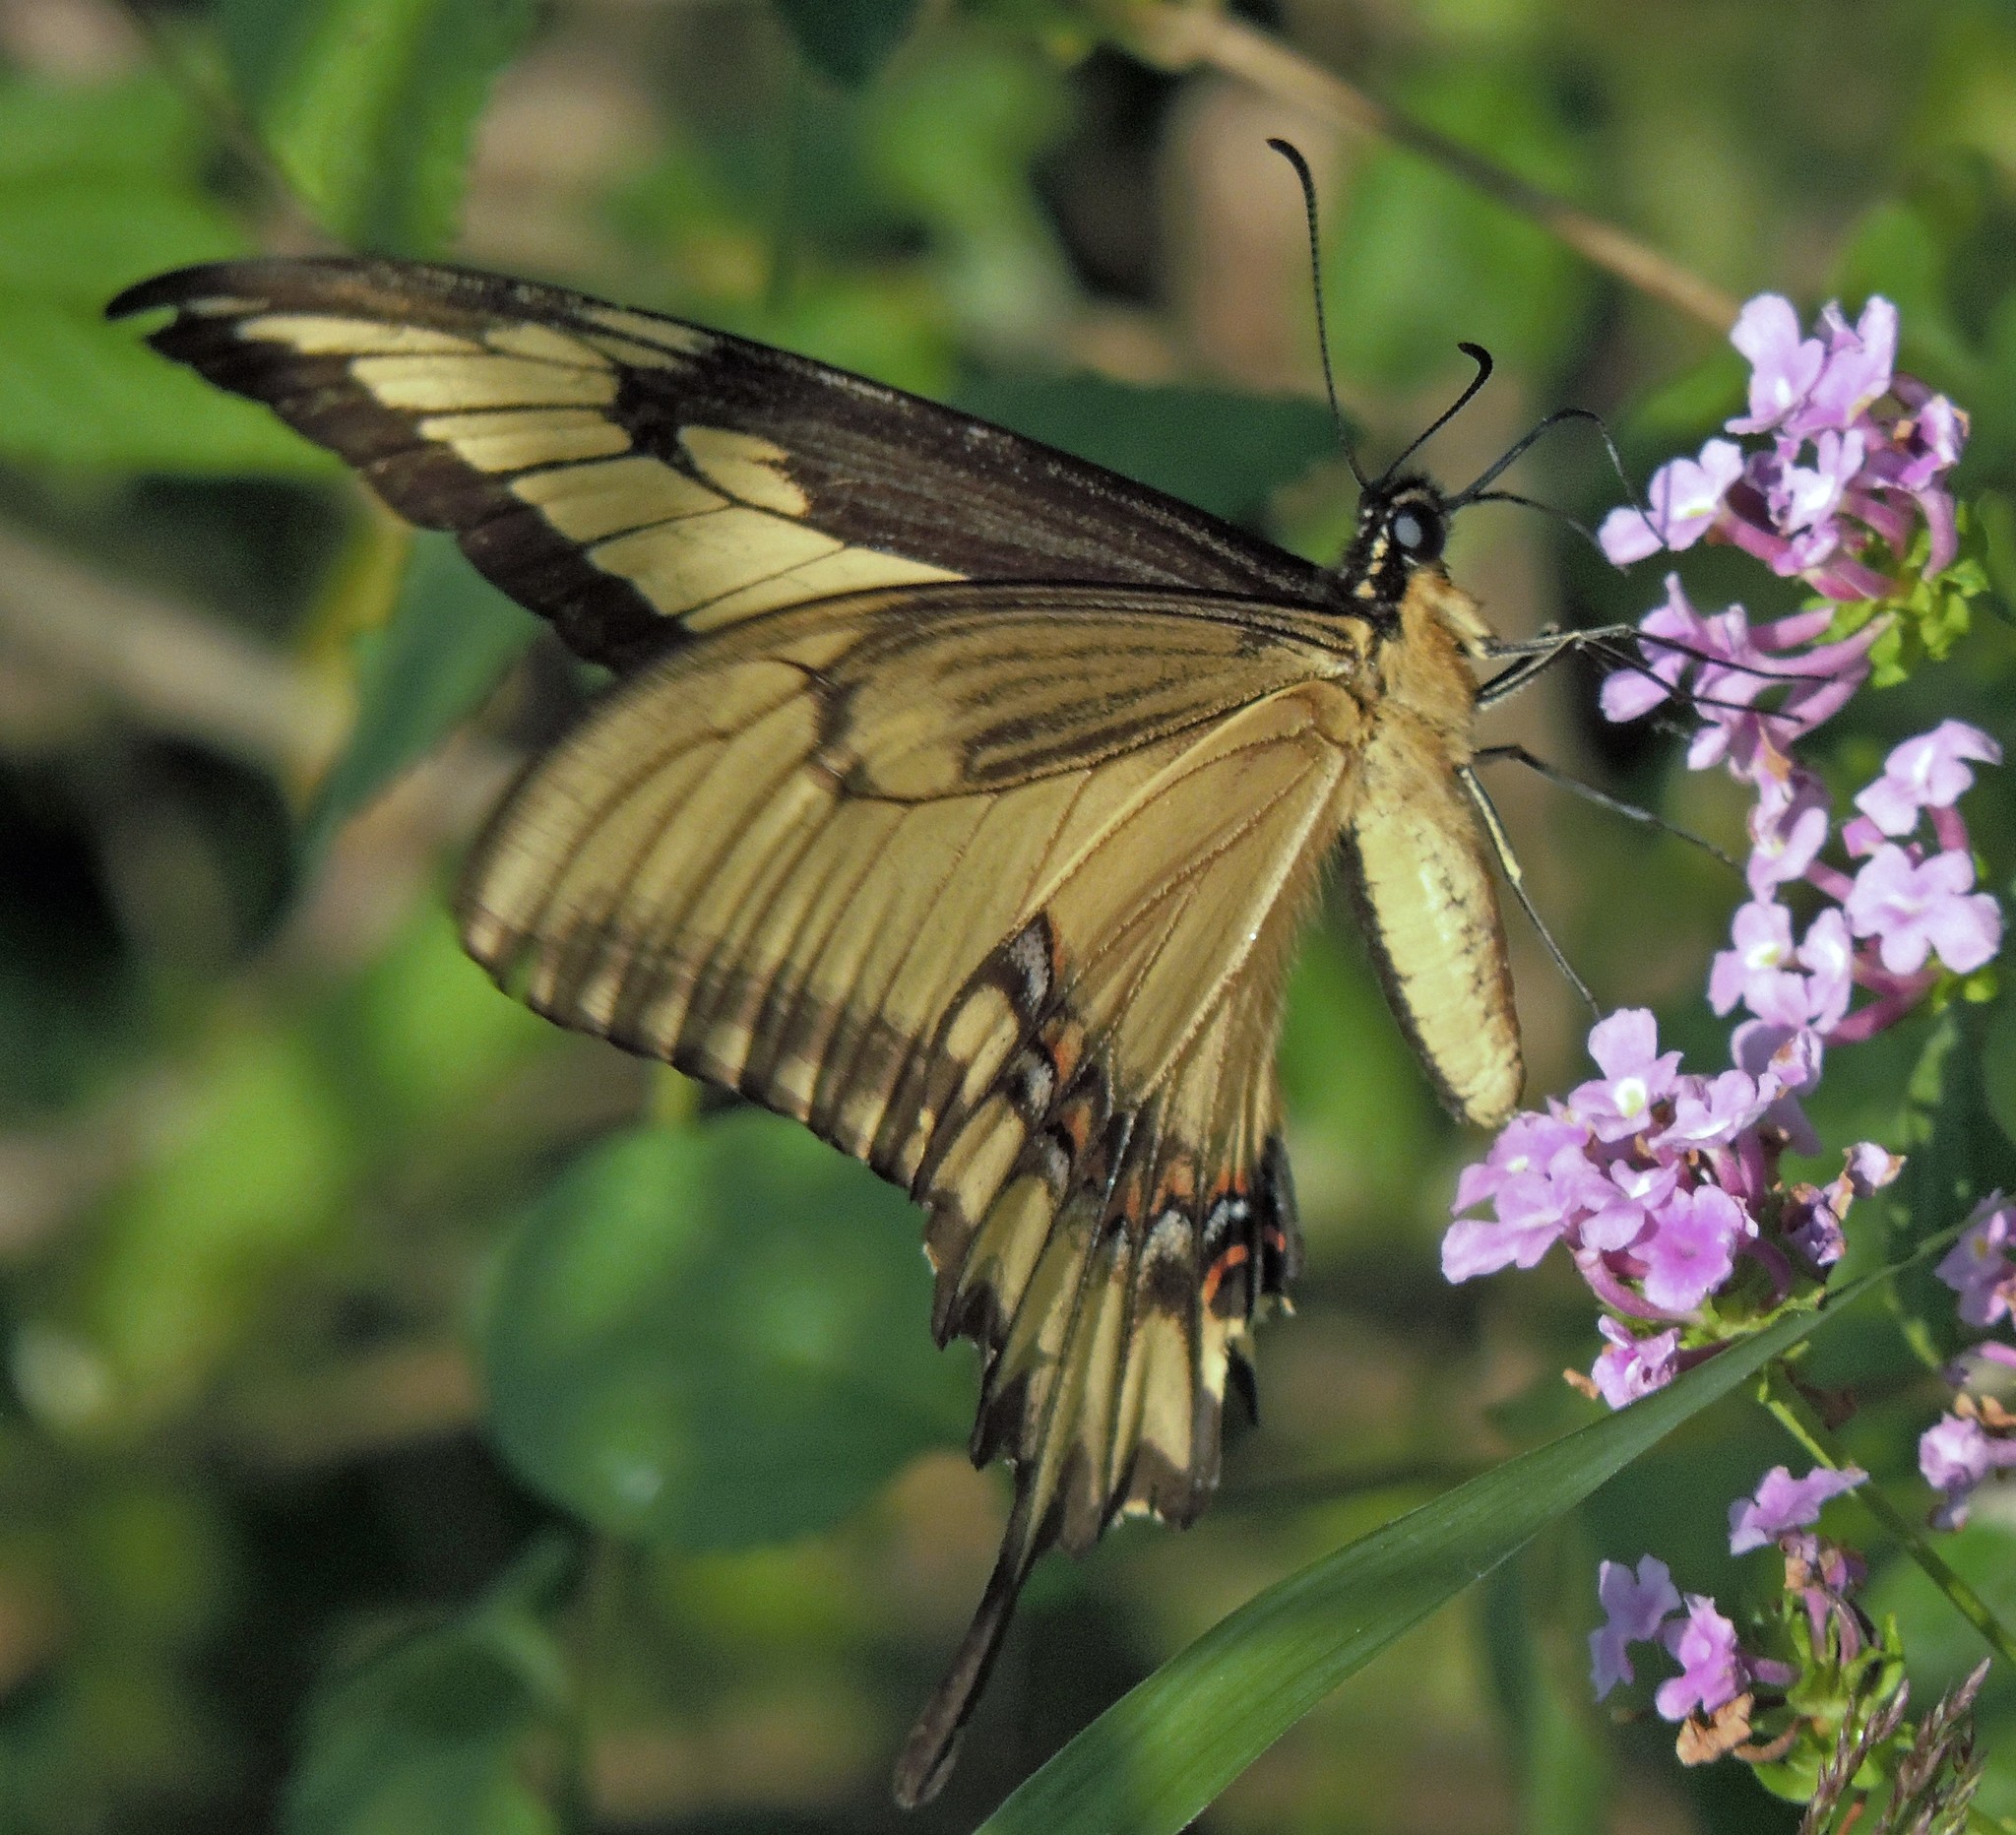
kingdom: Animalia
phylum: Arthropoda
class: Insecta
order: Lepidoptera
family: Papilionidae
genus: Papilio
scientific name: Papilio astyalus
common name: Astyalus swallowtail
